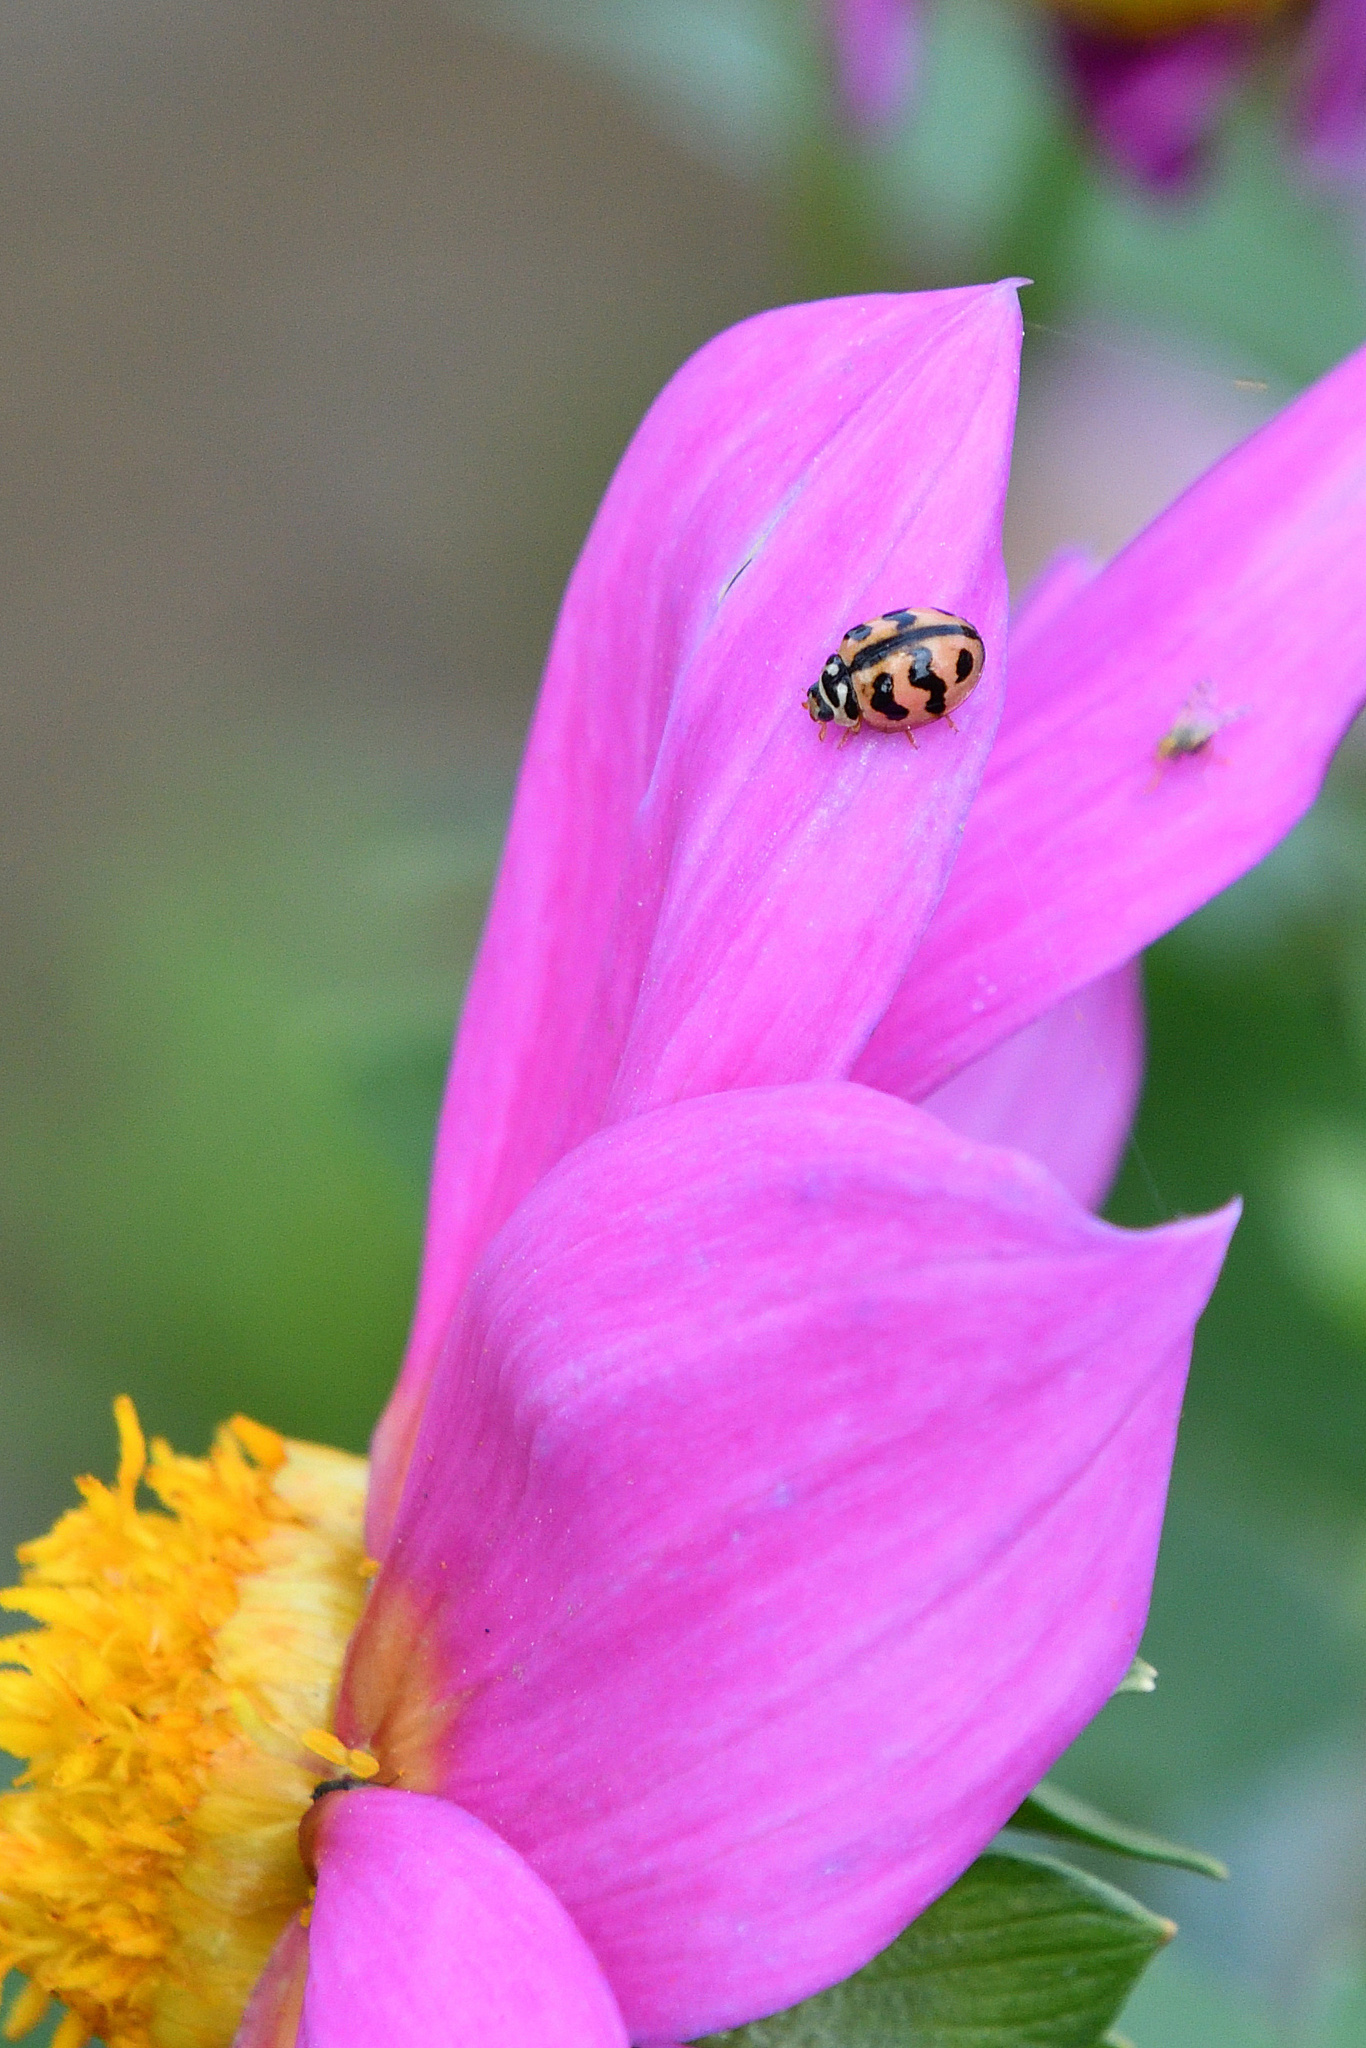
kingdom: Animalia
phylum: Arthropoda
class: Insecta
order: Coleoptera
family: Coccinellidae
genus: Cheilomenes
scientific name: Cheilomenes sexmaculata
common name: Ladybird beetle
